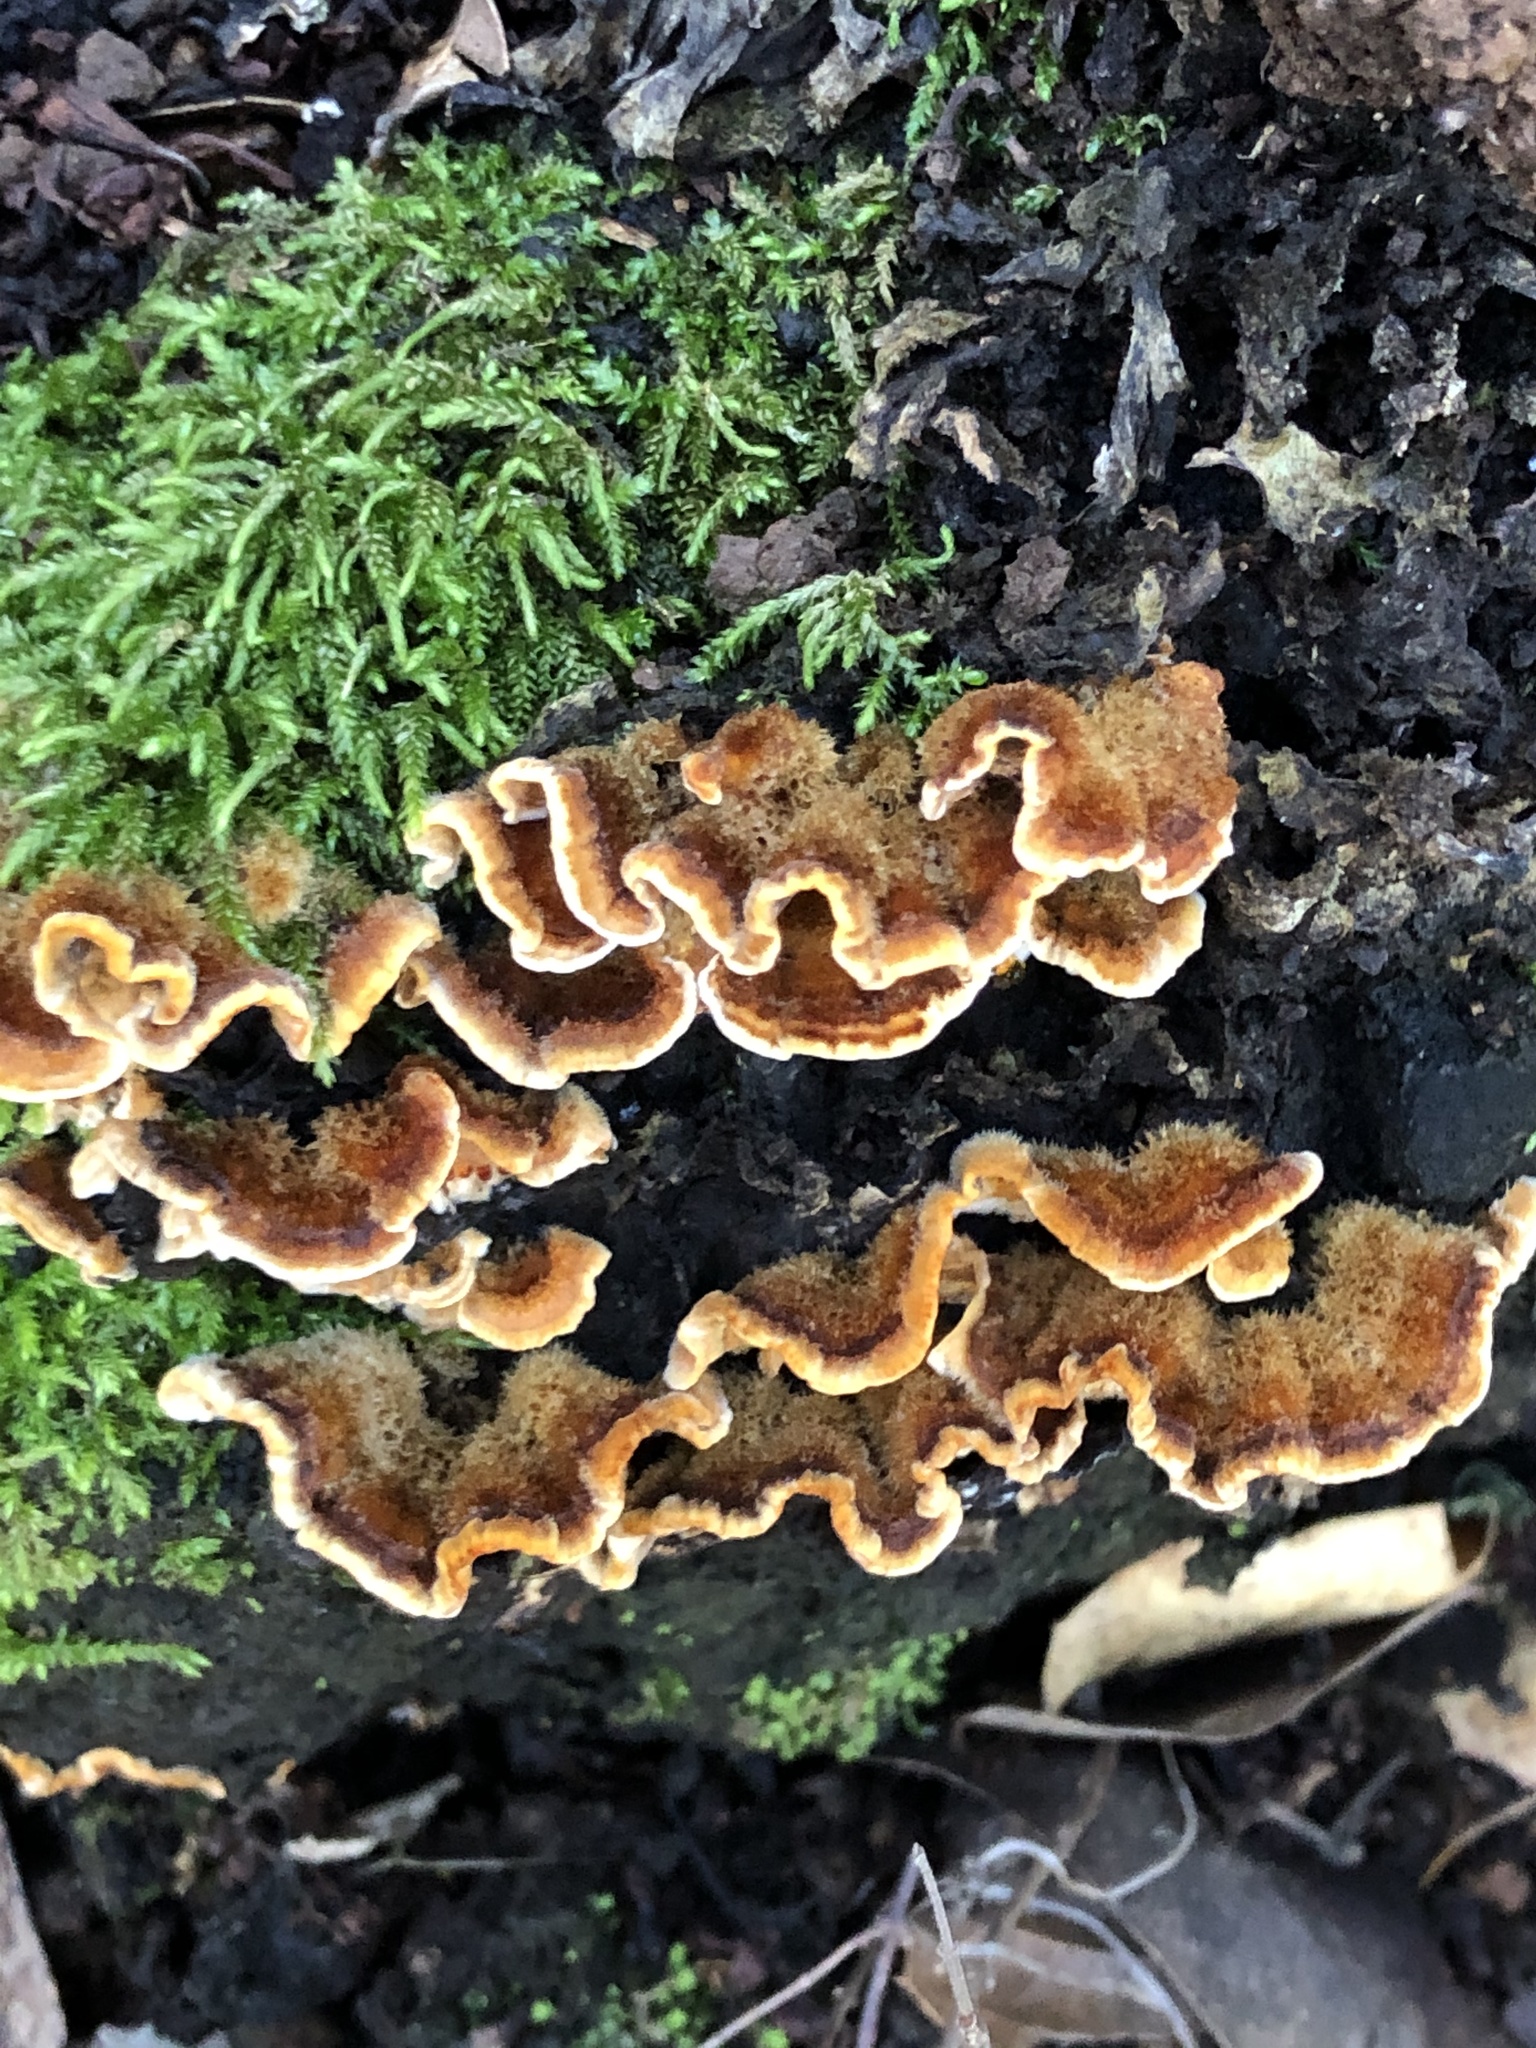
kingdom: Fungi
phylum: Basidiomycota
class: Agaricomycetes
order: Russulales
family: Stereaceae
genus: Stereum
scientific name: Stereum hirsutum
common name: Hairy curtain crust
